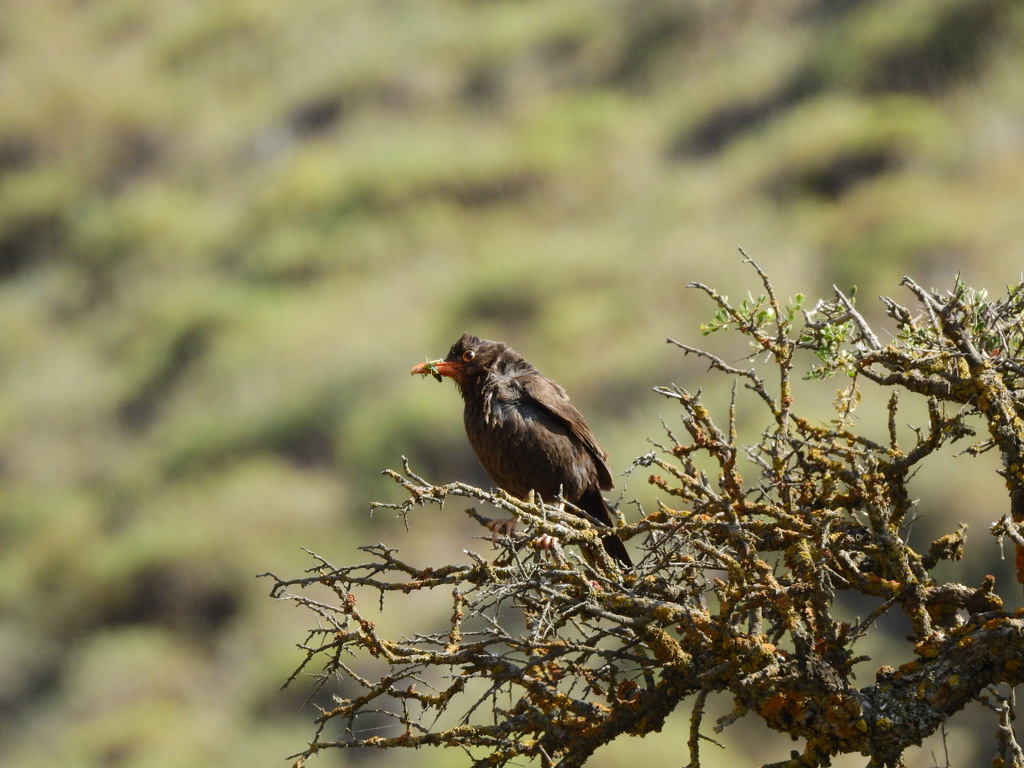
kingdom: Animalia
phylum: Chordata
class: Aves
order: Passeriformes
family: Turdidae
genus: Turdus
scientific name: Turdus chiguanco
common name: Chiguanco thrush
